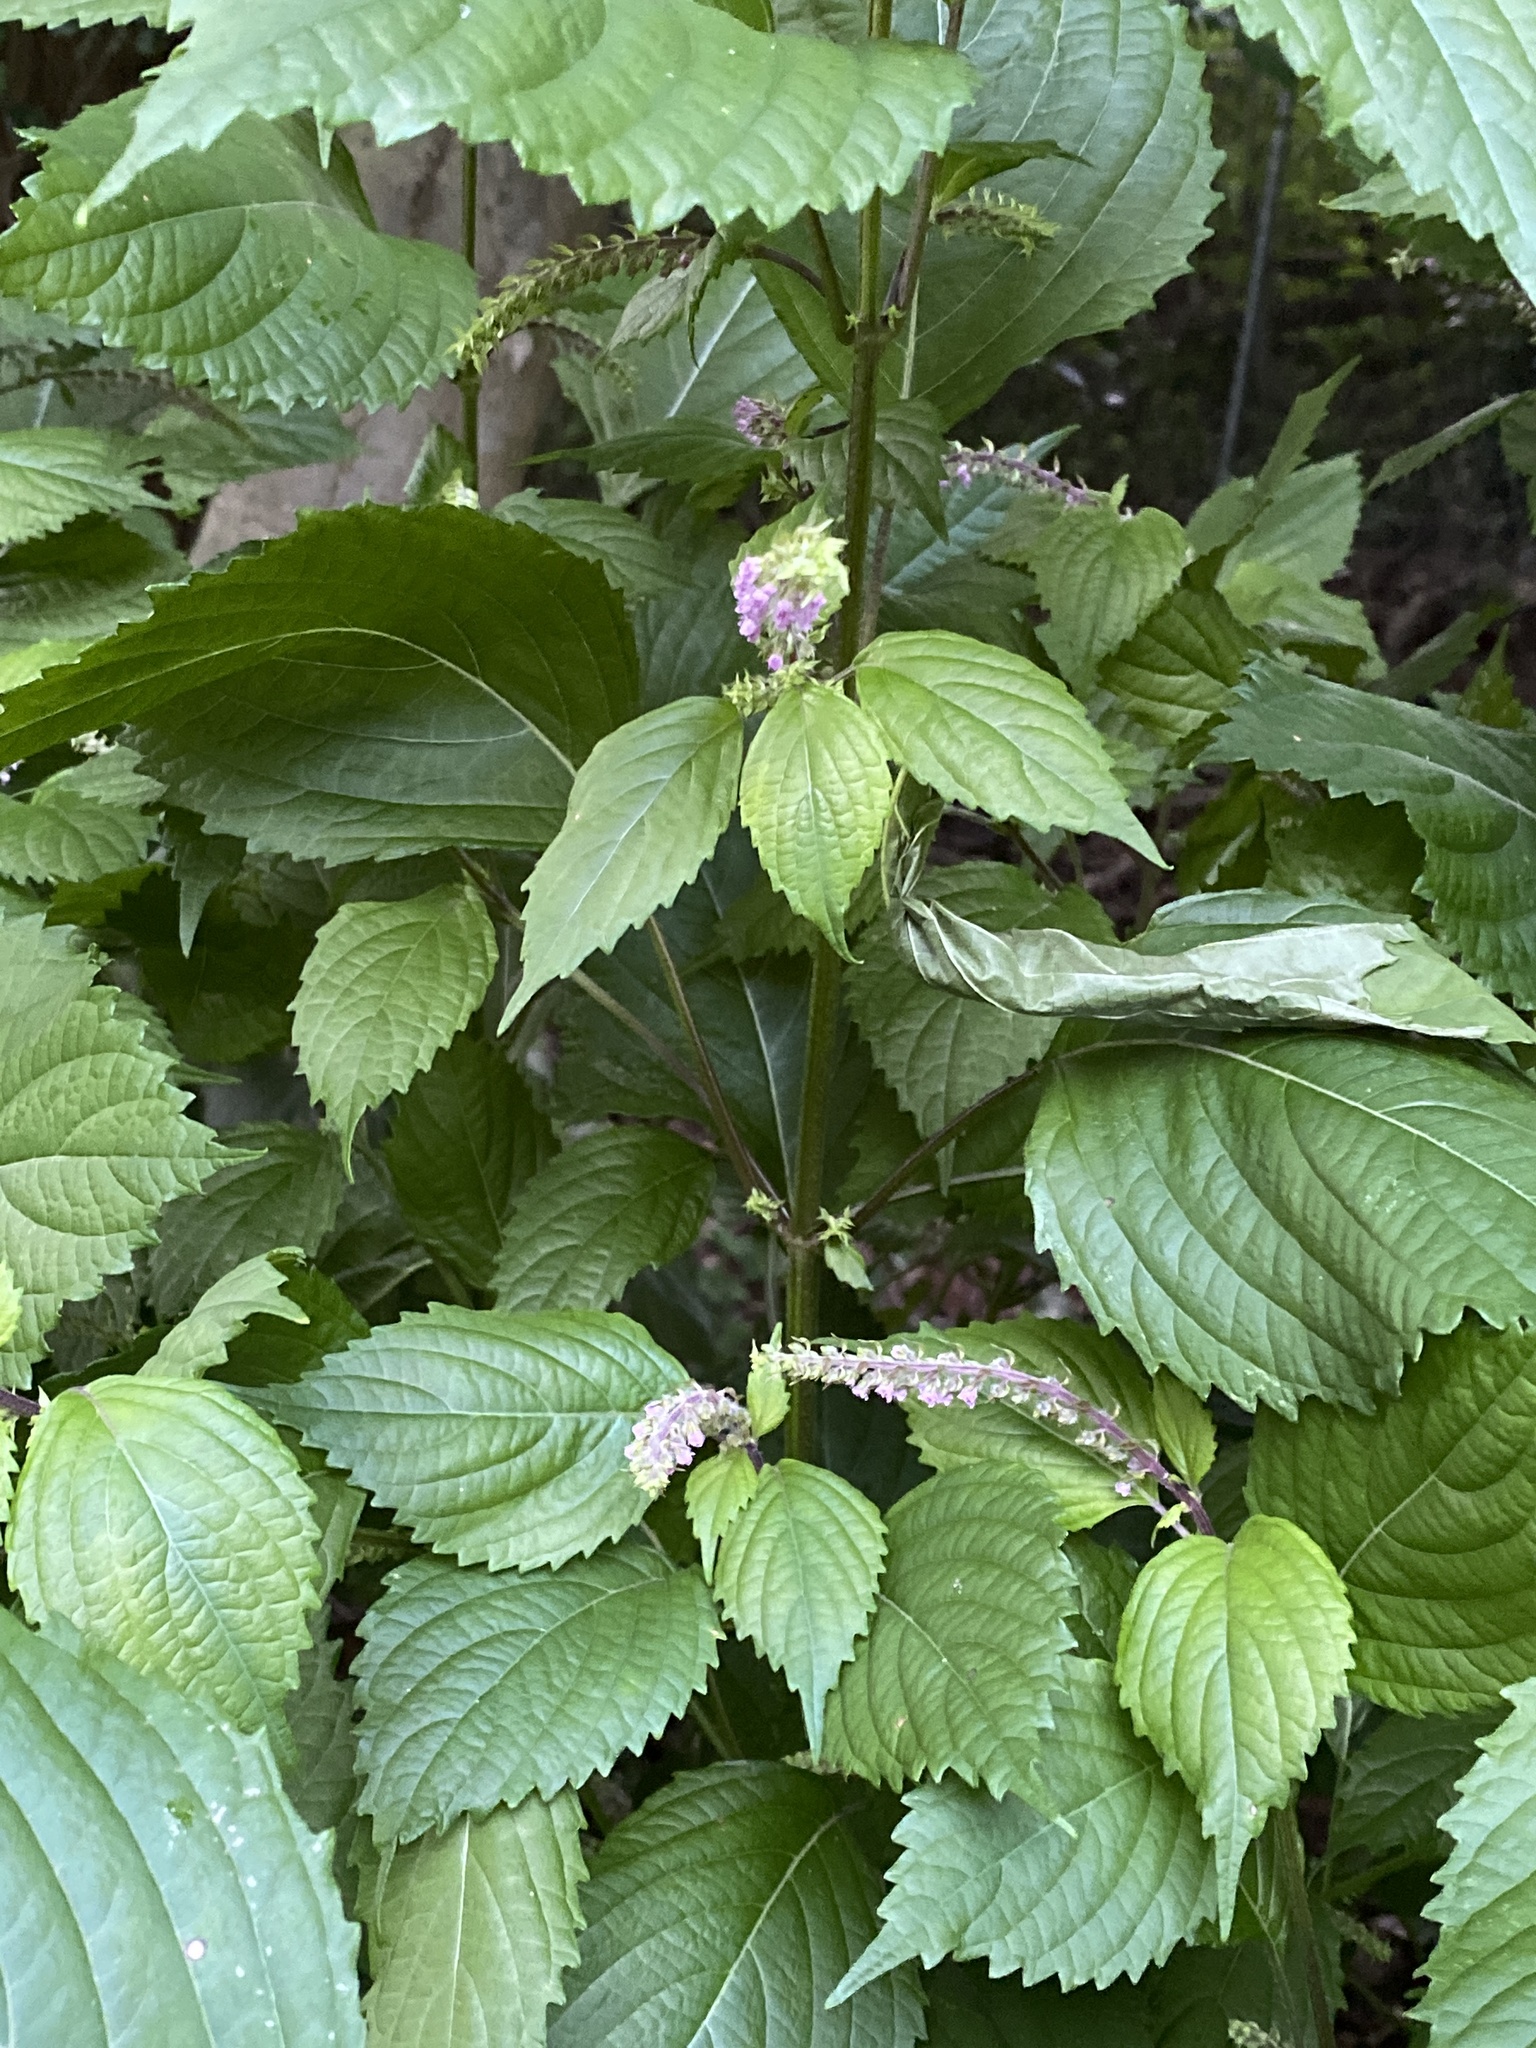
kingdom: Plantae
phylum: Tracheophyta
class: Magnoliopsida
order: Lamiales
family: Lamiaceae
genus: Perilla
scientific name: Perilla frutescens
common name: Perilla
